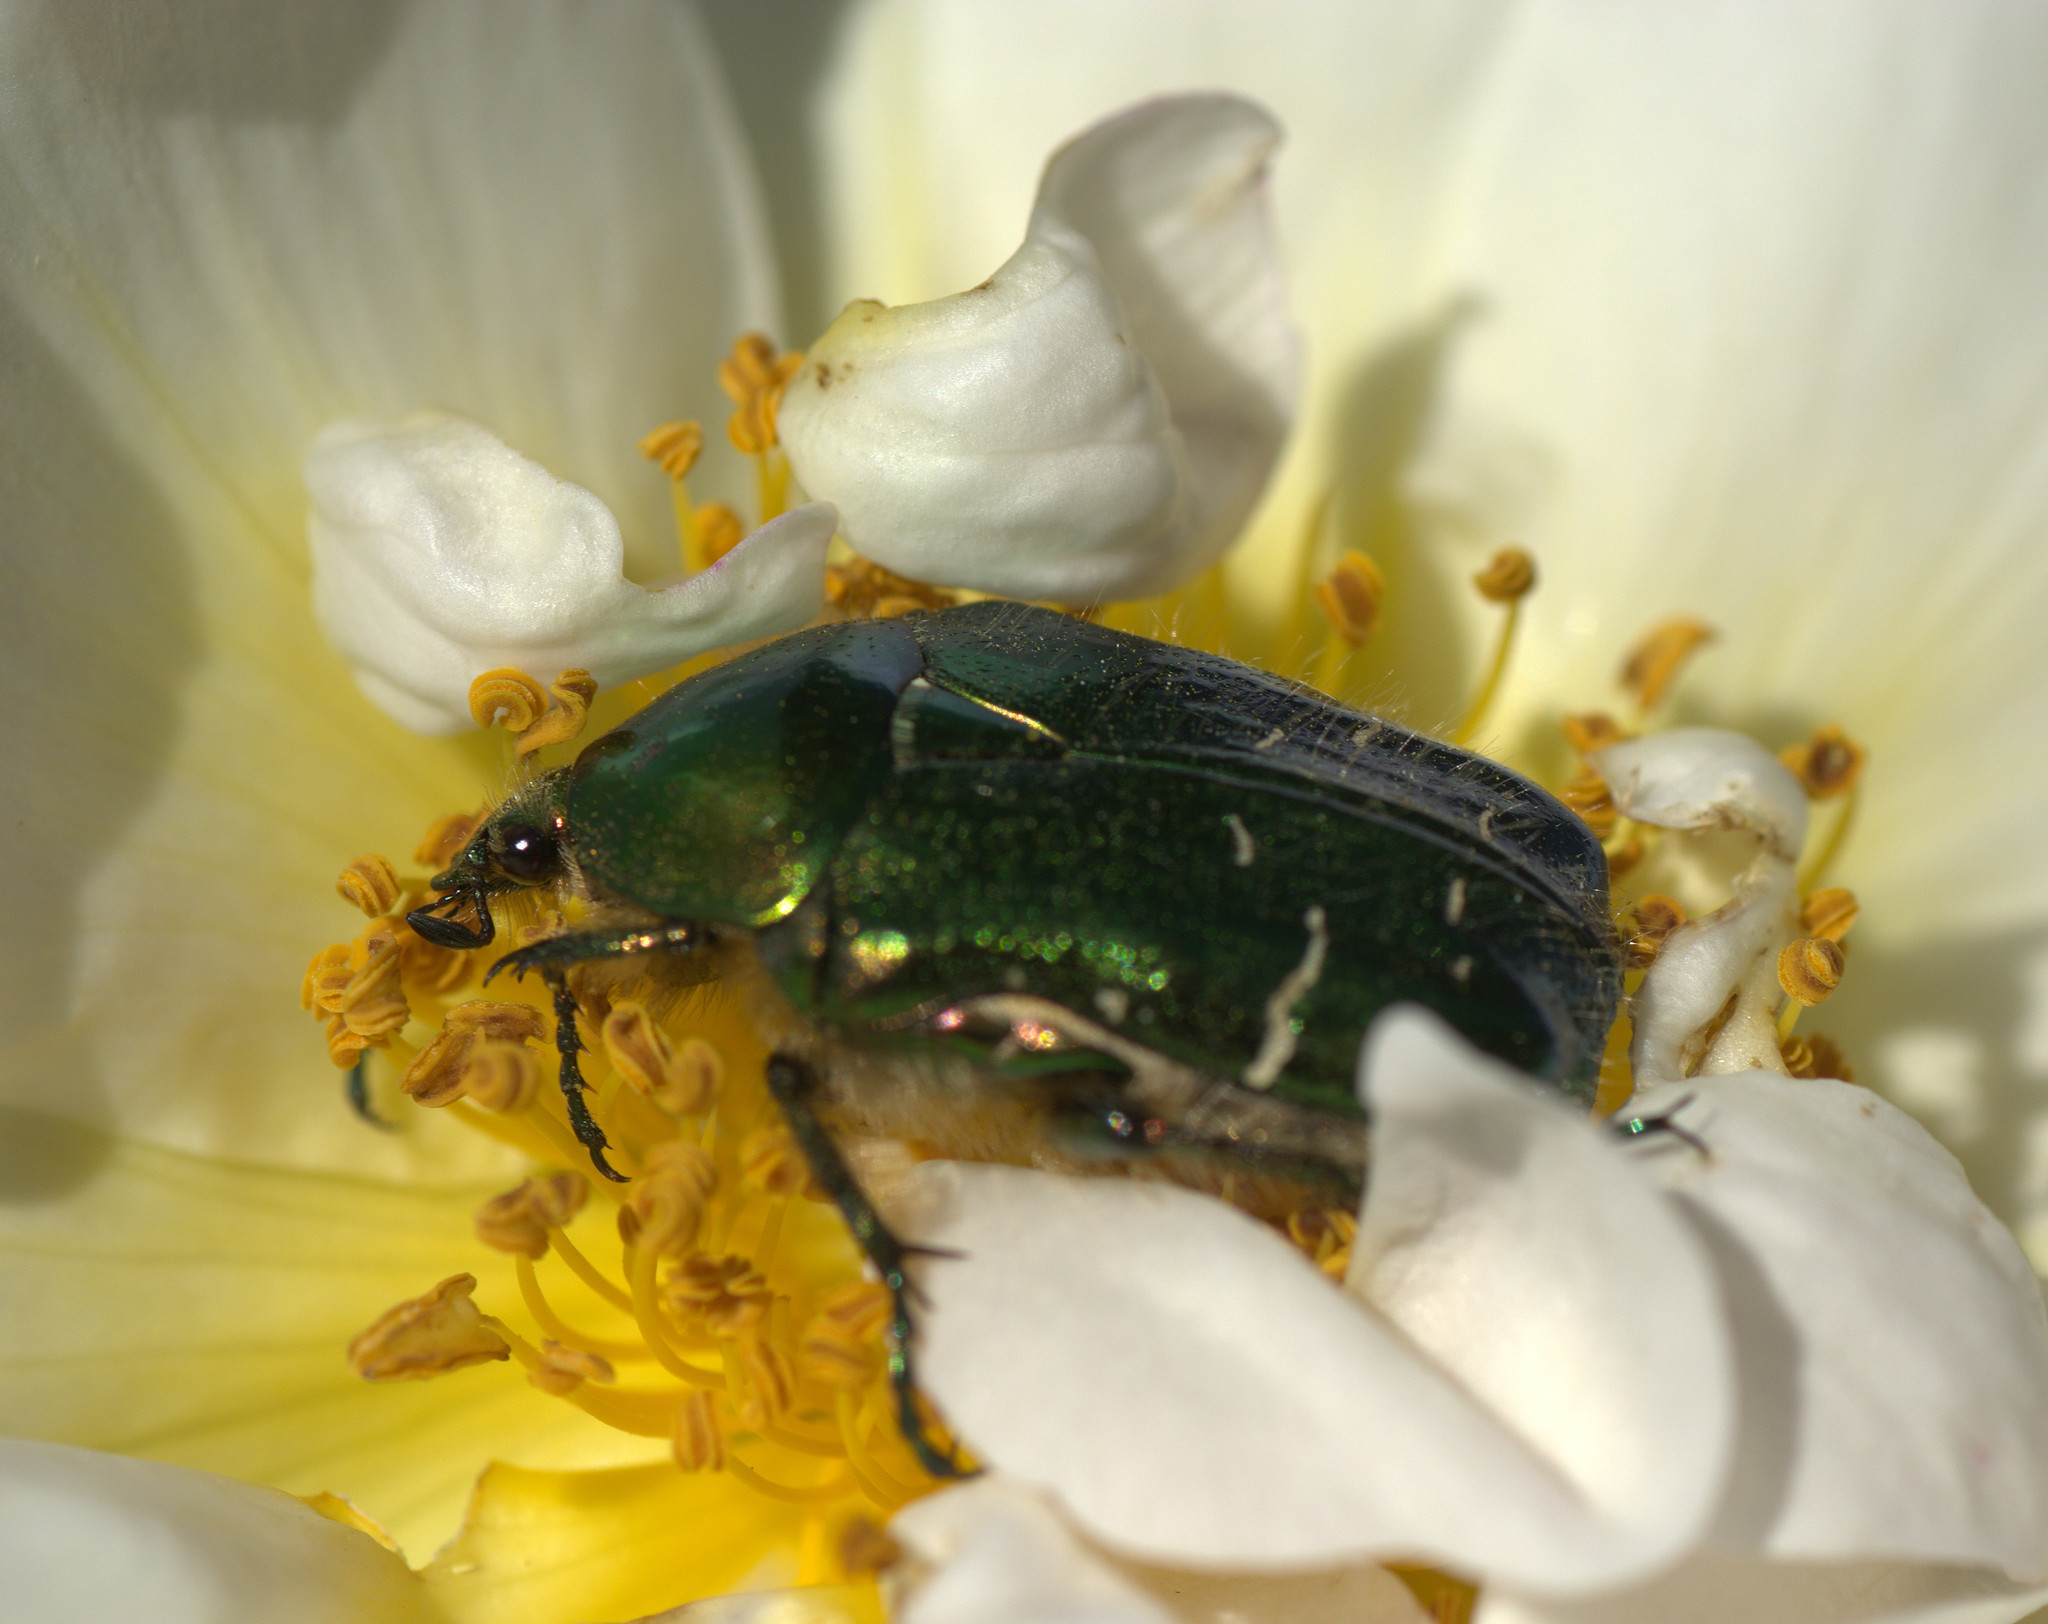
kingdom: Animalia
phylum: Arthropoda
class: Insecta
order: Coleoptera
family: Scarabaeidae
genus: Cetonia
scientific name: Cetonia aurata
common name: Rose chafer
